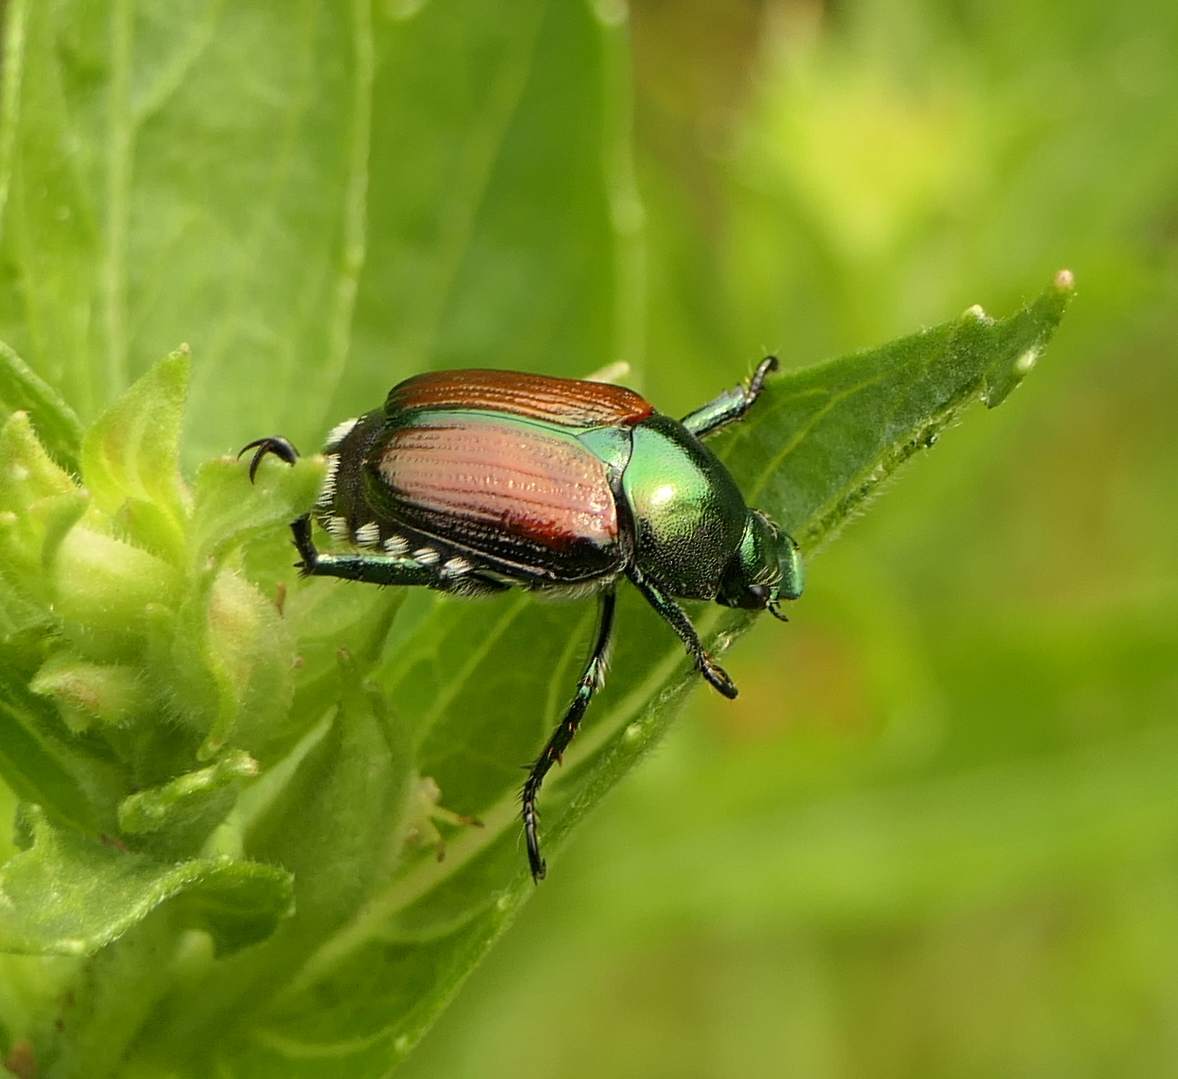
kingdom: Animalia
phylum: Arthropoda
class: Insecta
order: Coleoptera
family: Scarabaeidae
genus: Popillia
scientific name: Popillia japonica
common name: Japanese beetle
